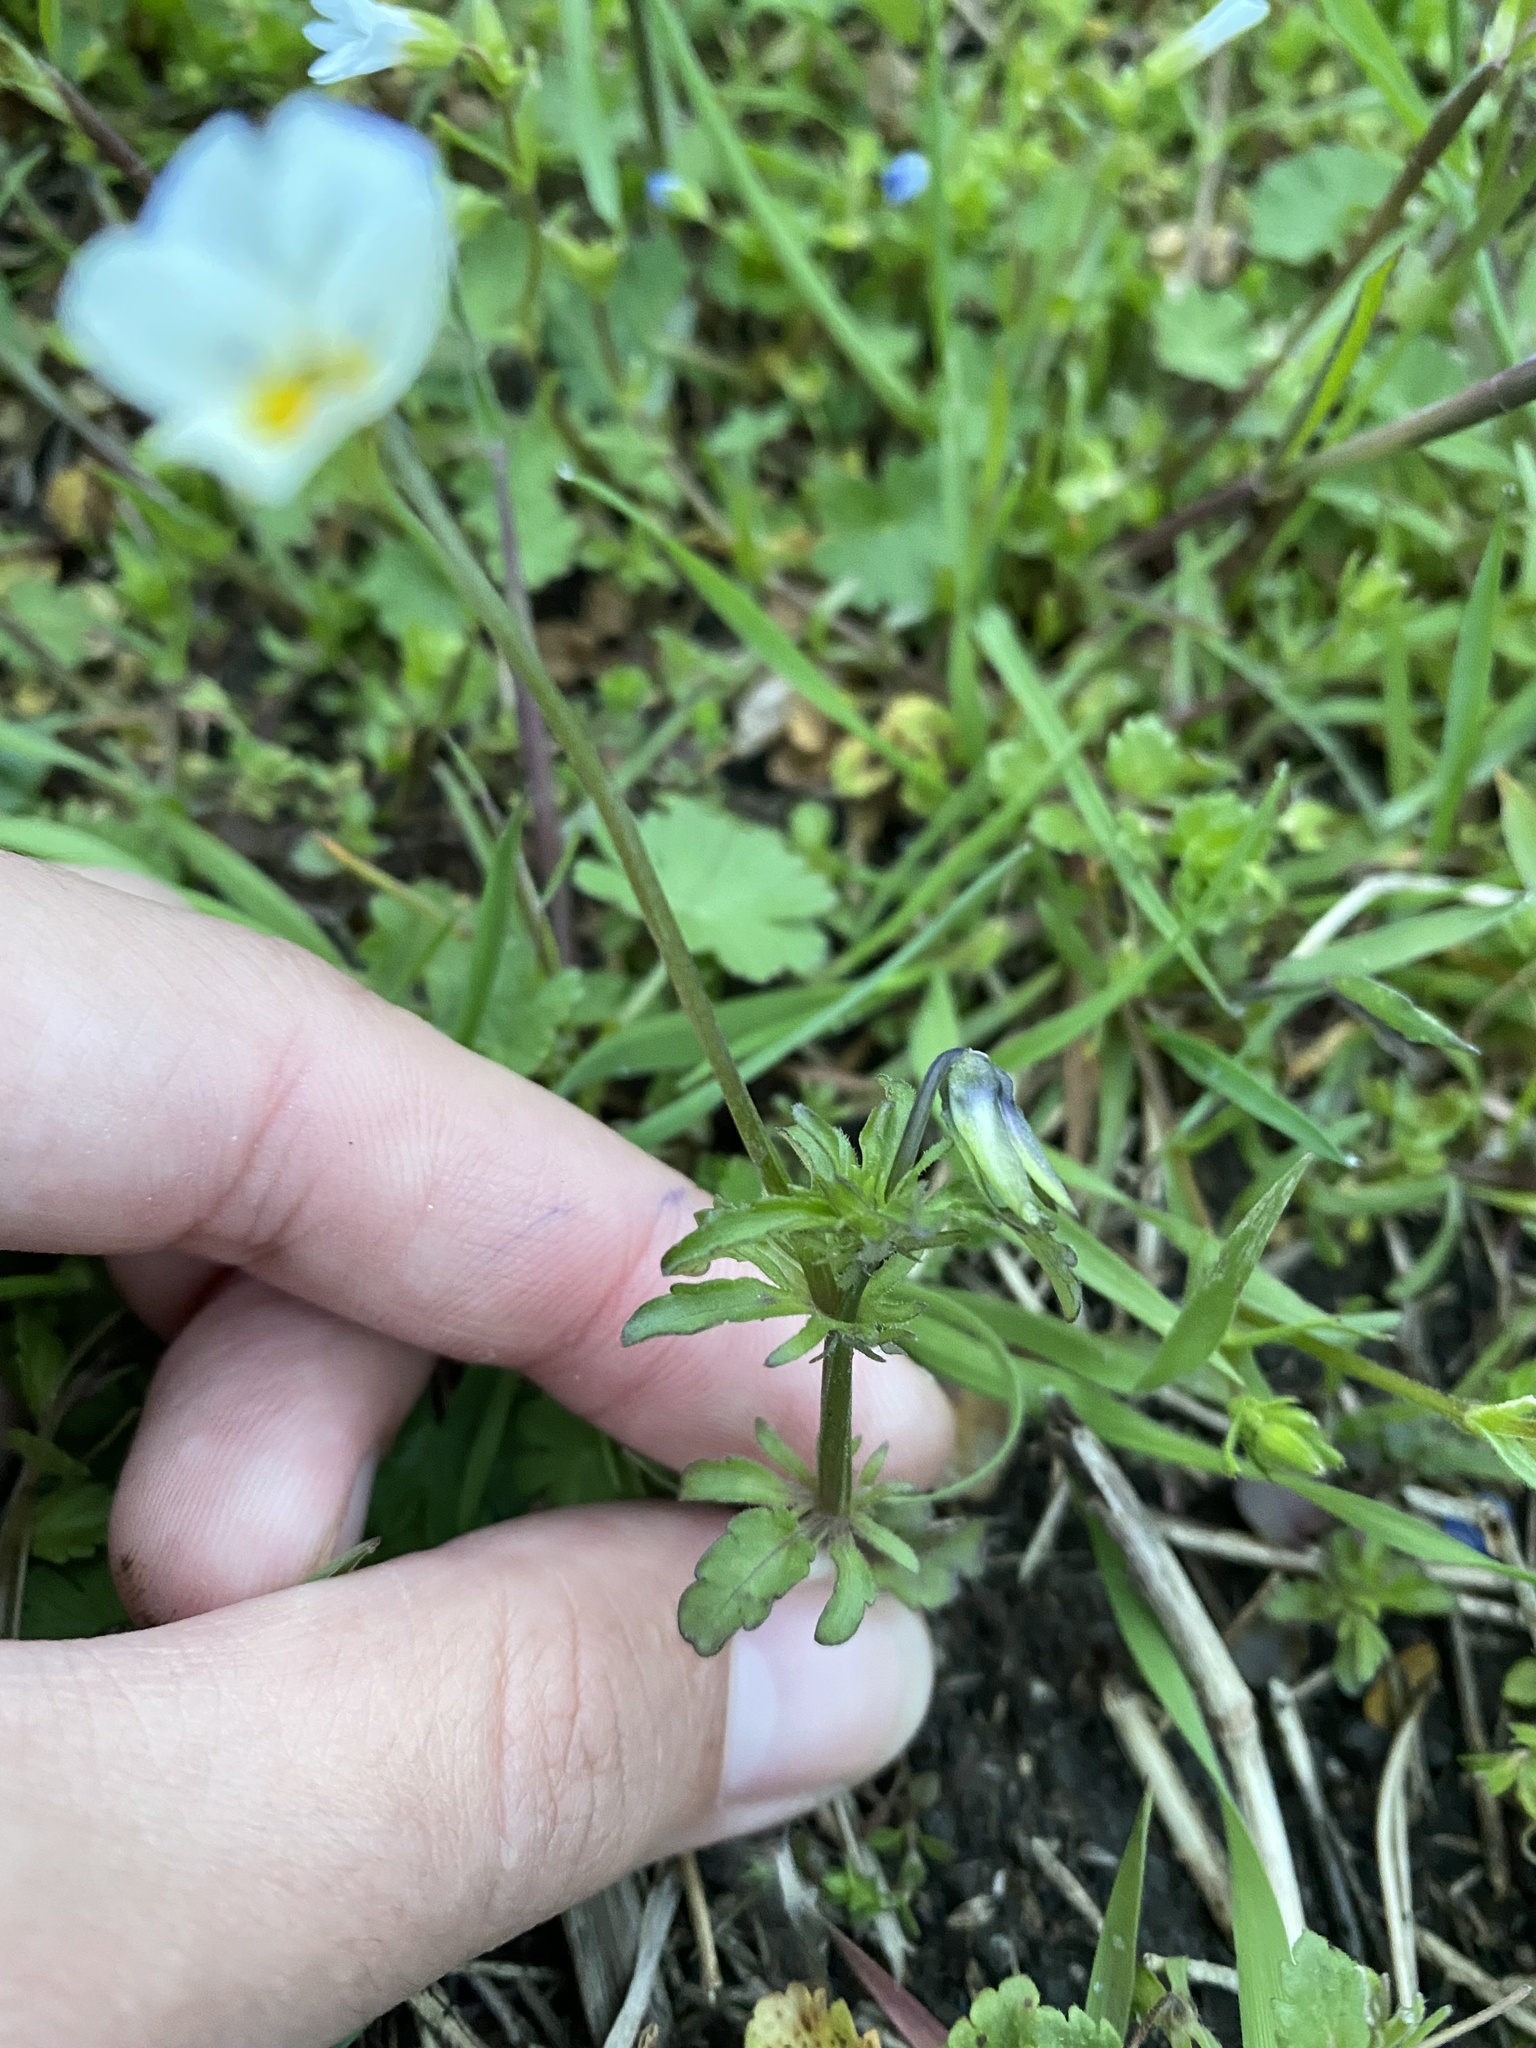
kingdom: Plantae
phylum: Tracheophyta
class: Magnoliopsida
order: Malpighiales
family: Violaceae
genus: Viola
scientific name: Viola arvensis
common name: Field pansy
